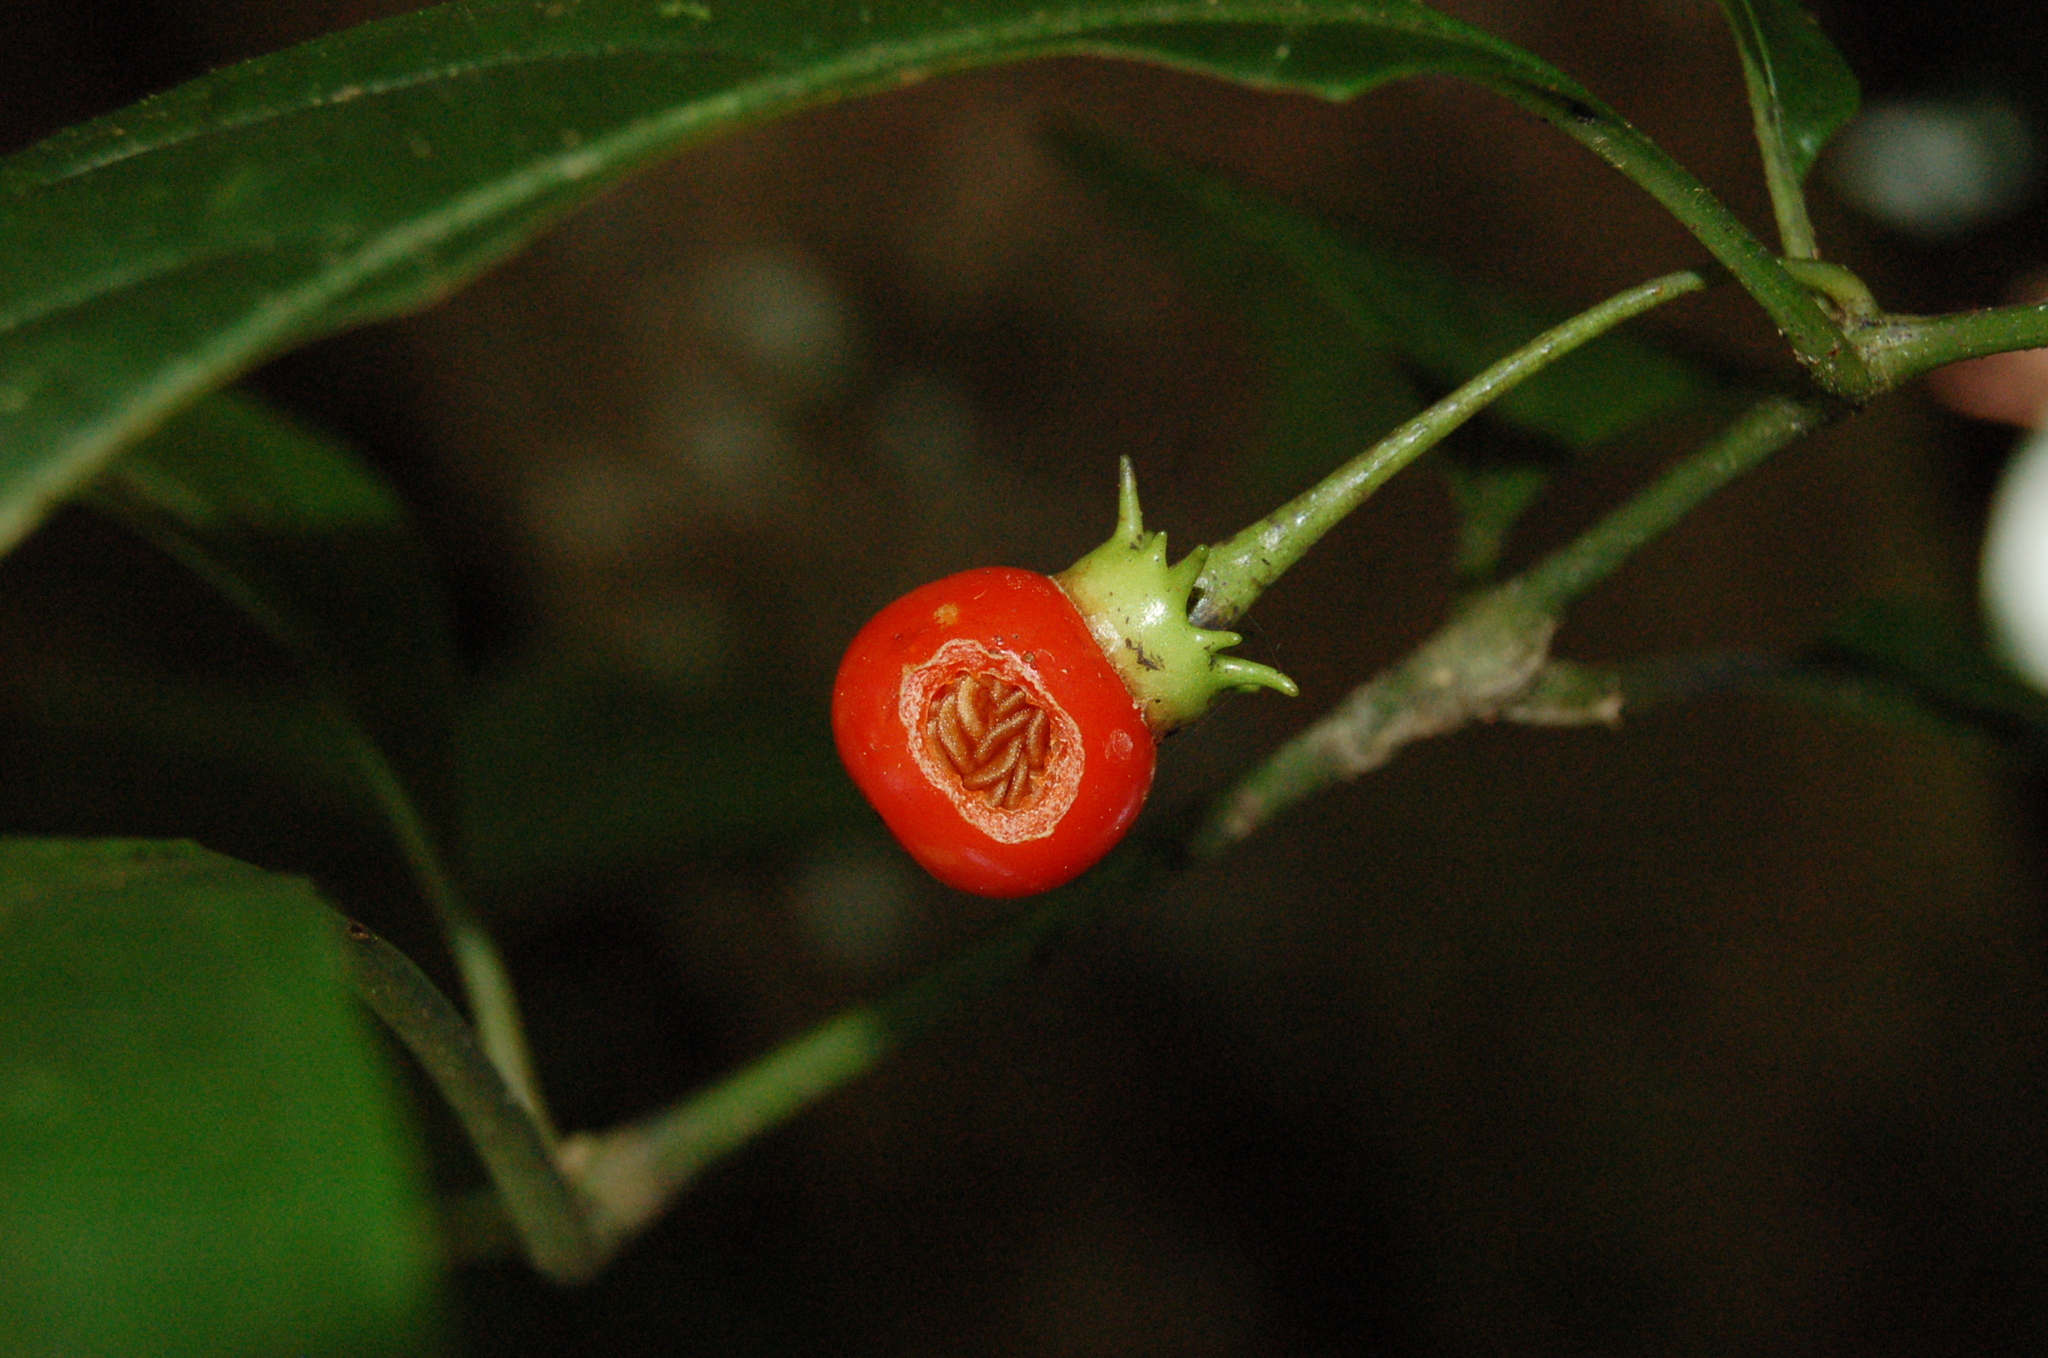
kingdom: Plantae
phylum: Tracheophyta
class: Magnoliopsida
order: Solanales
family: Solanaceae
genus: Lycianthes
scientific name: Lycianthes connata
